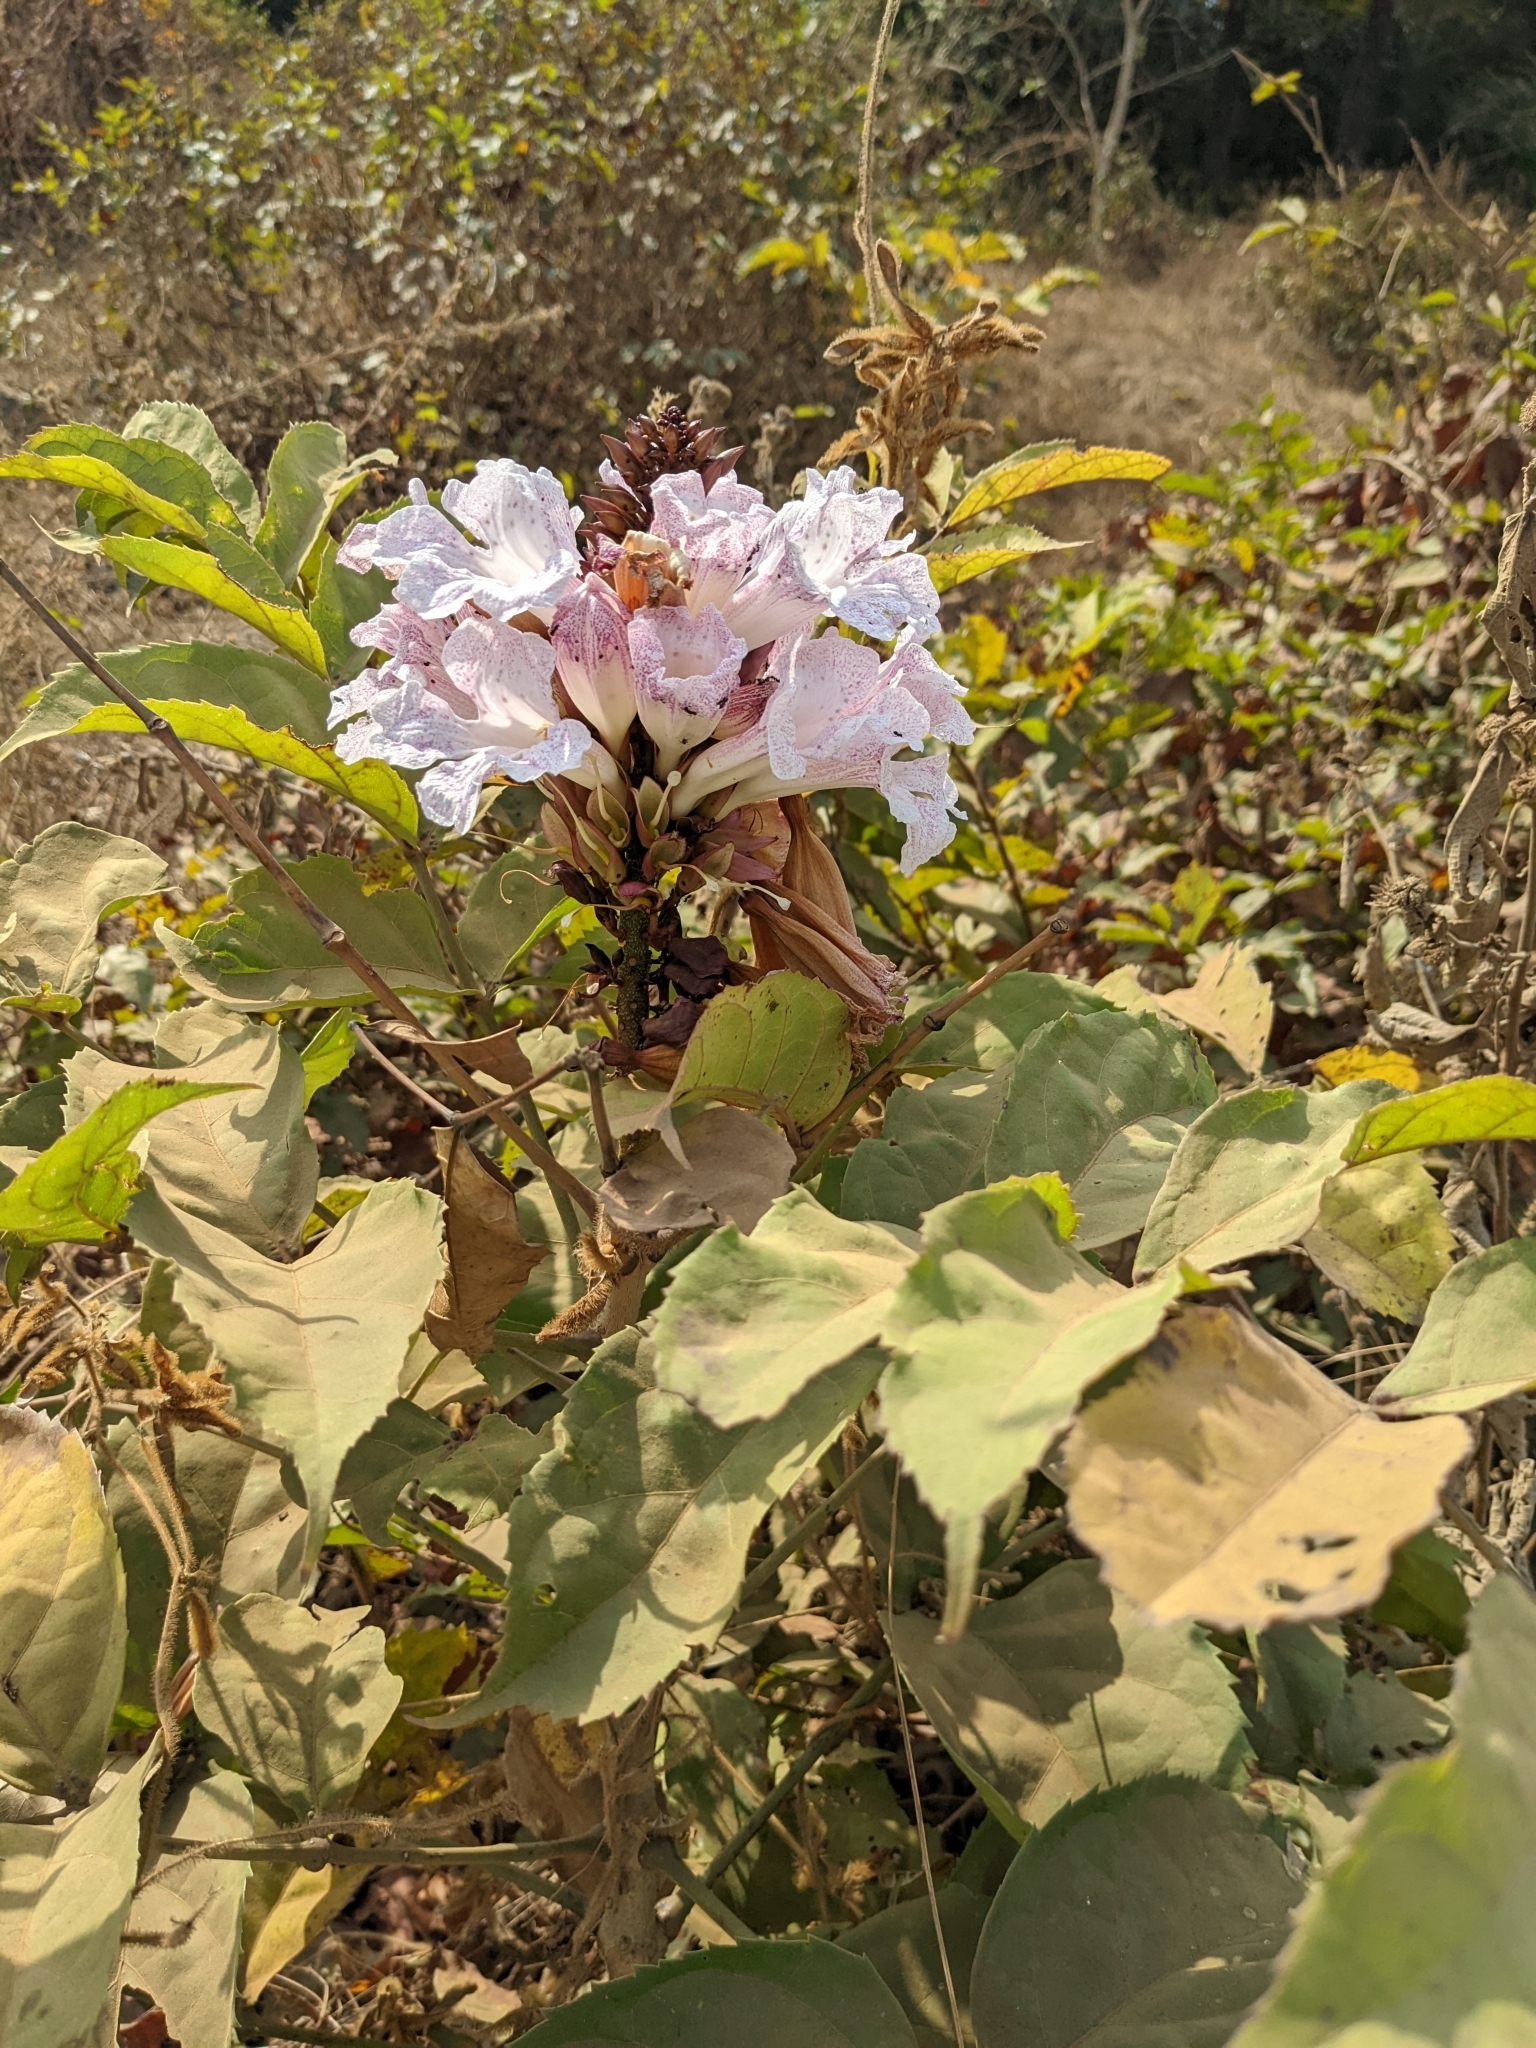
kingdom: Plantae
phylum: Tracheophyta
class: Magnoliopsida
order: Lamiales
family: Bignoniaceae
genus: Newbouldia
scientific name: Newbouldia laevis
